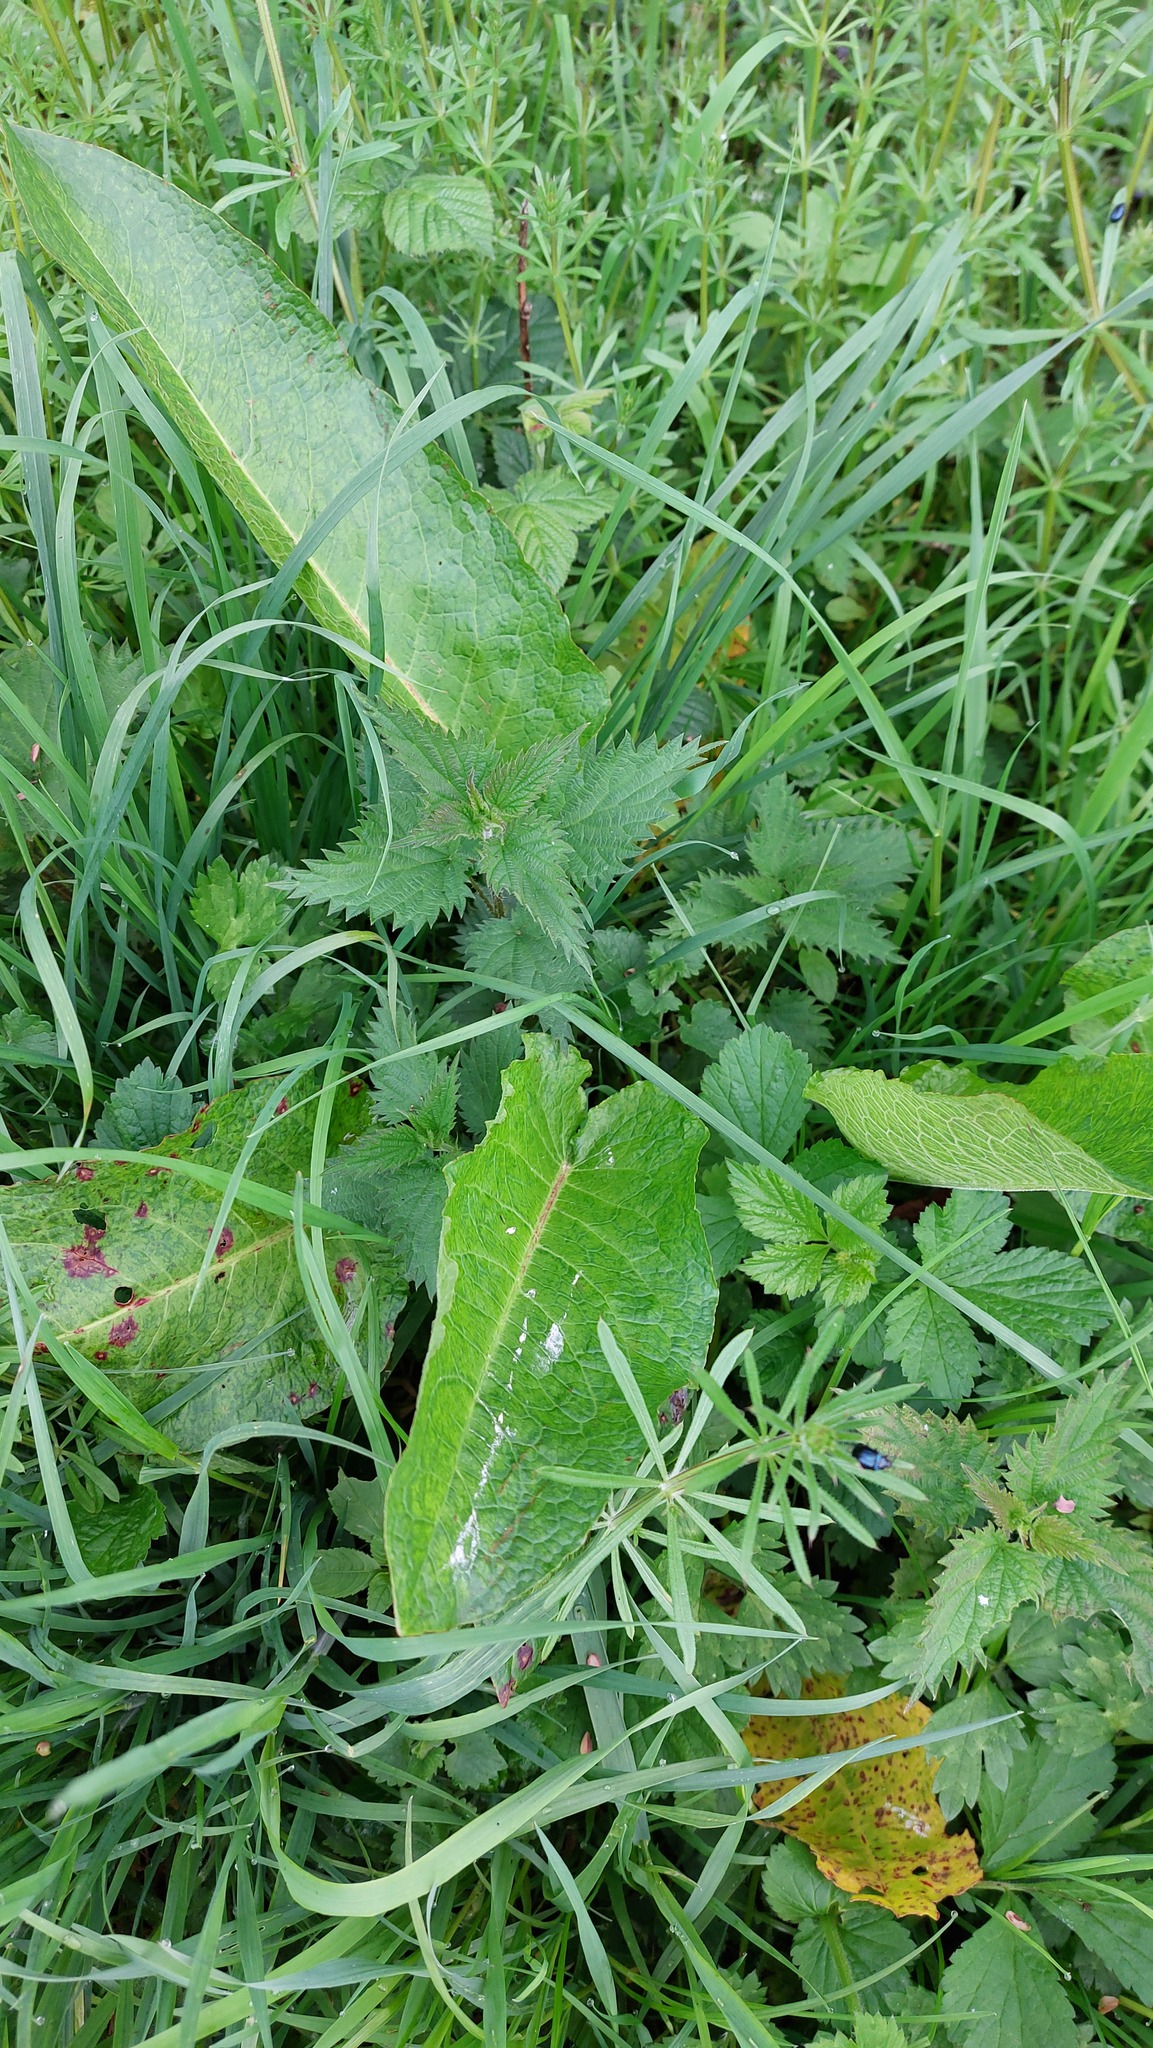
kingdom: Plantae
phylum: Tracheophyta
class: Magnoliopsida
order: Caryophyllales
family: Polygonaceae
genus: Rumex
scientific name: Rumex obtusifolius
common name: Bitter dock
